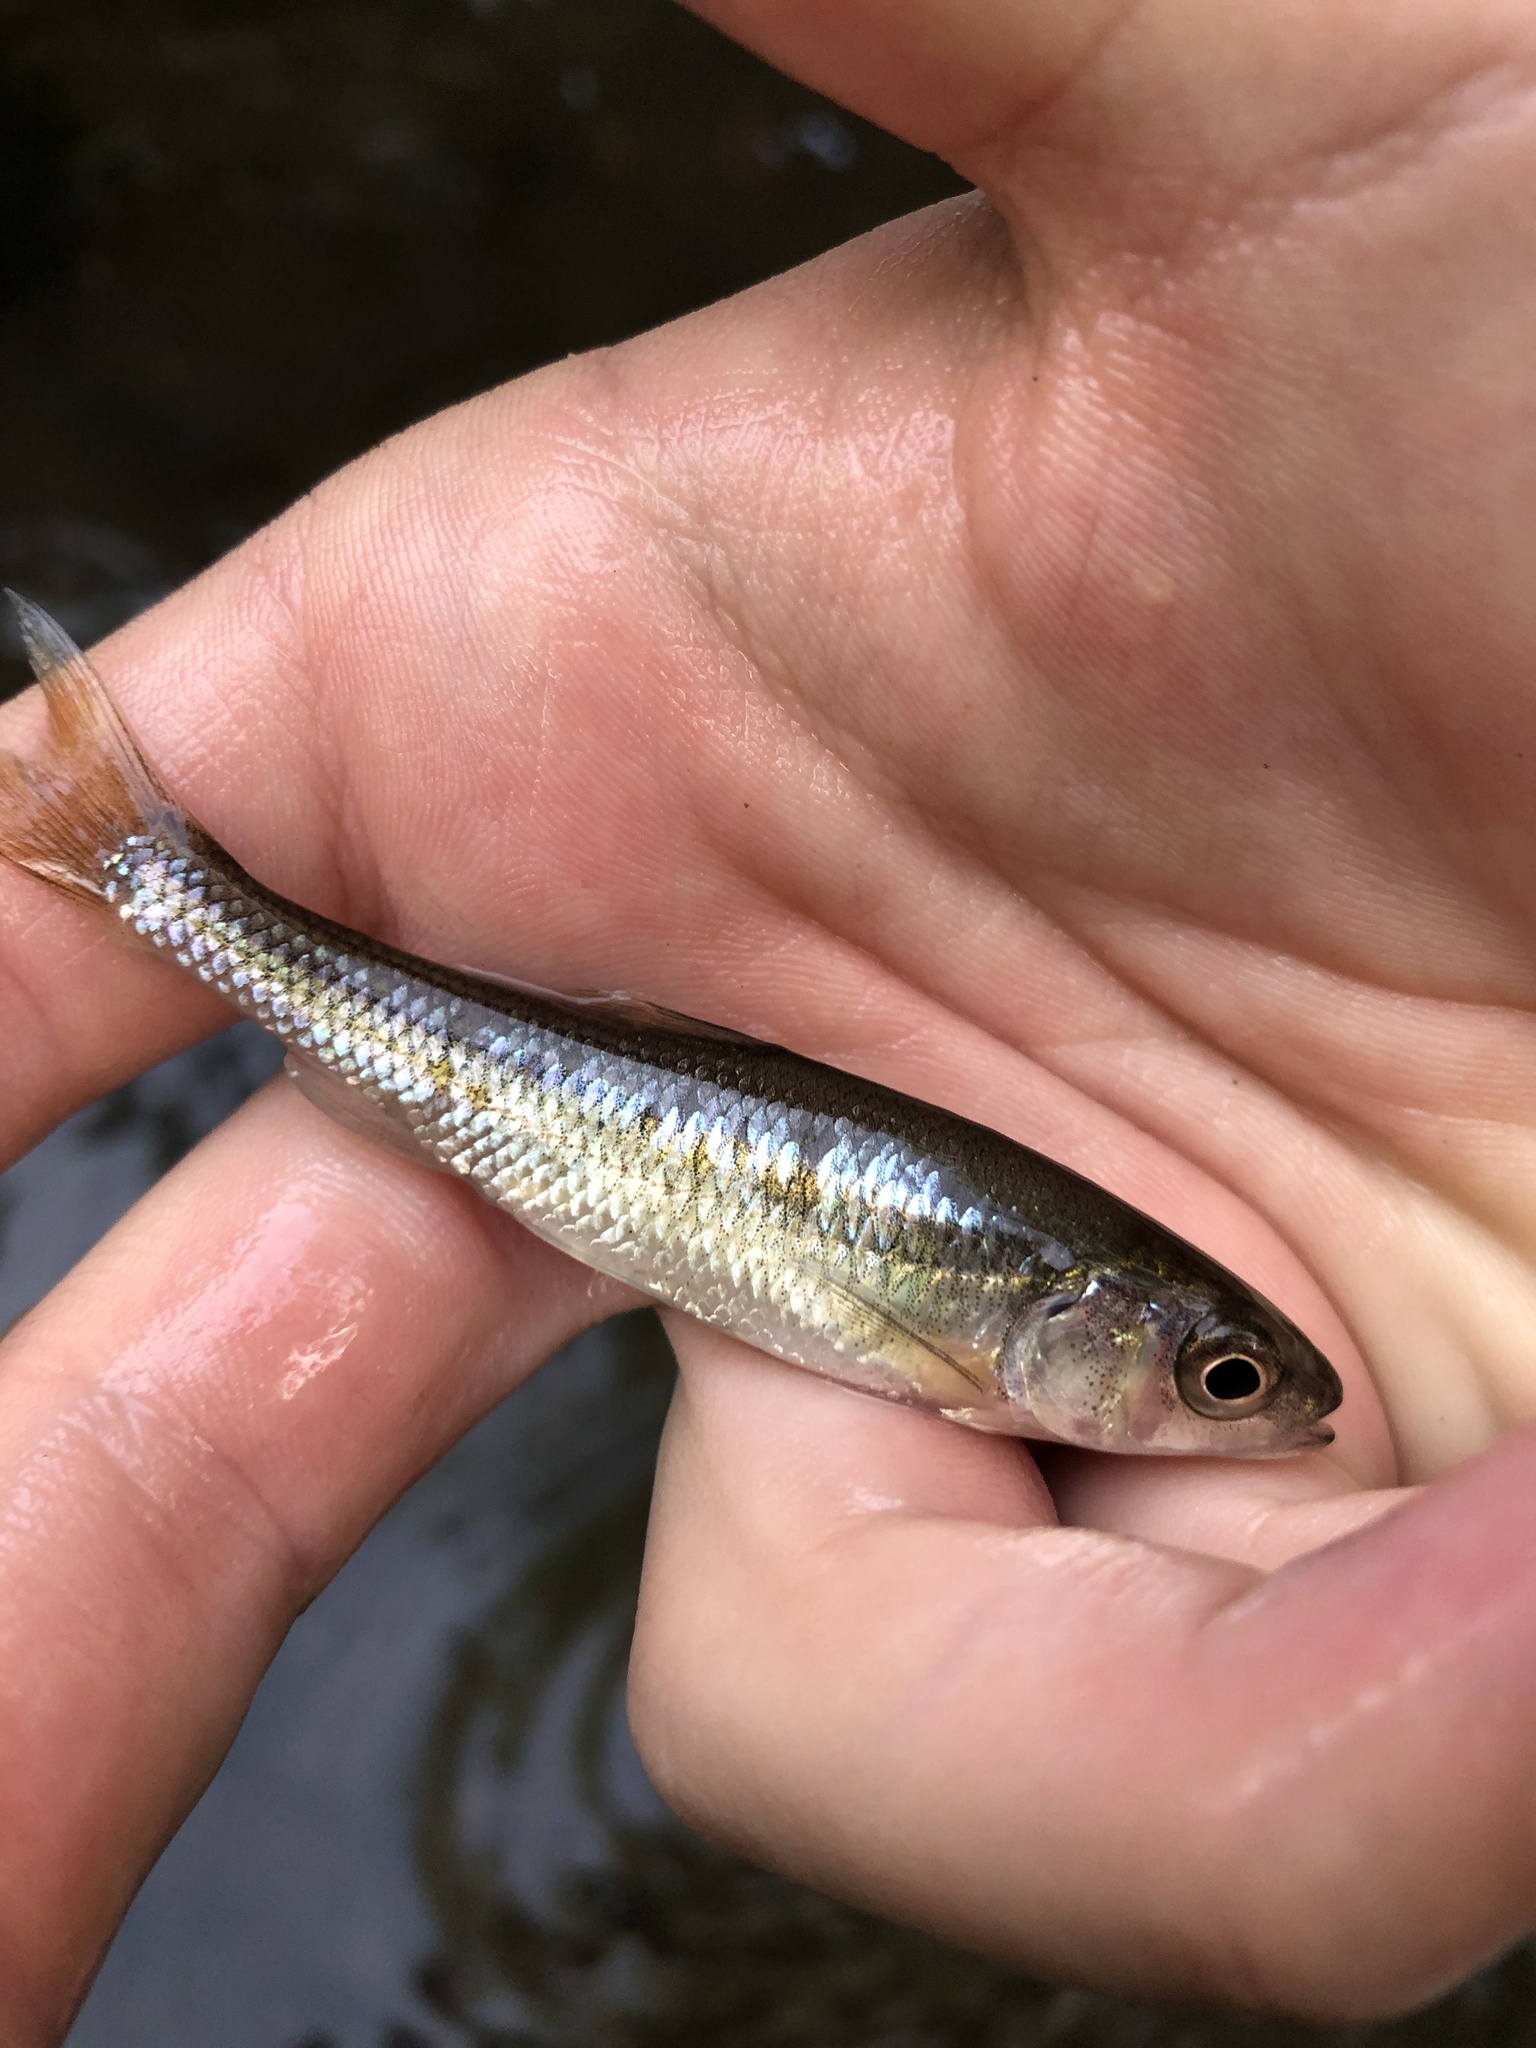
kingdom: Animalia
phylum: Chordata
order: Cypriniformes
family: Cyprinidae
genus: Luxilus
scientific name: Luxilus cornutus
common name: Common shiner
